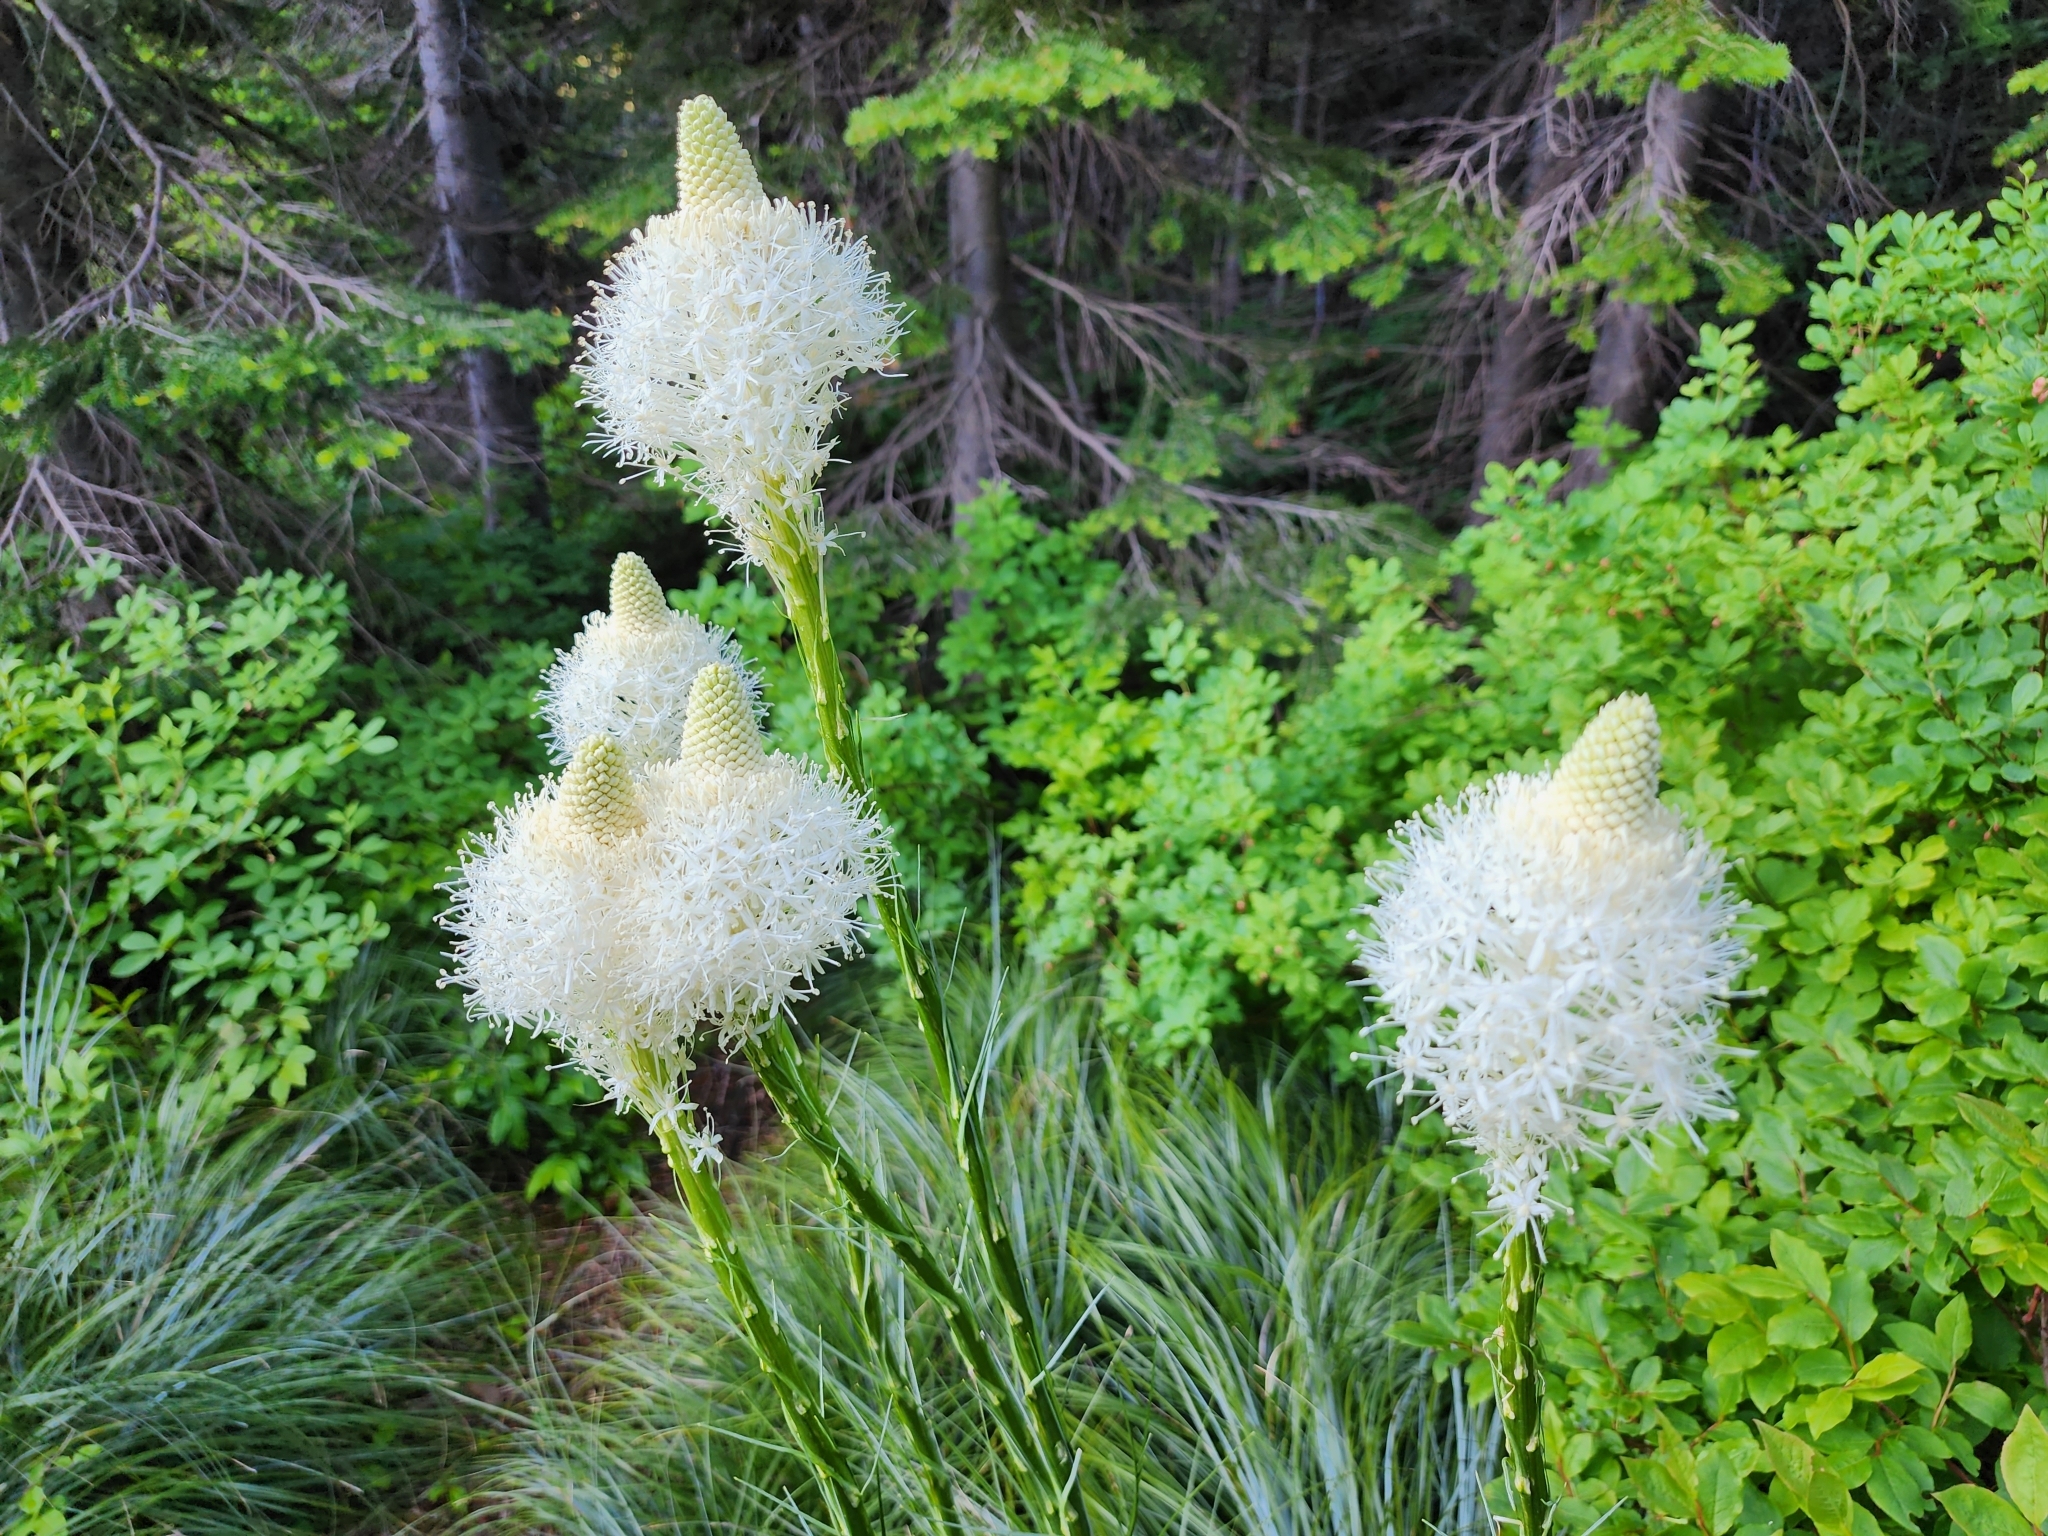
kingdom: Plantae
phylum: Tracheophyta
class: Liliopsida
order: Liliales
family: Melanthiaceae
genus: Xerophyllum
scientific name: Xerophyllum tenax
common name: Bear-grass
